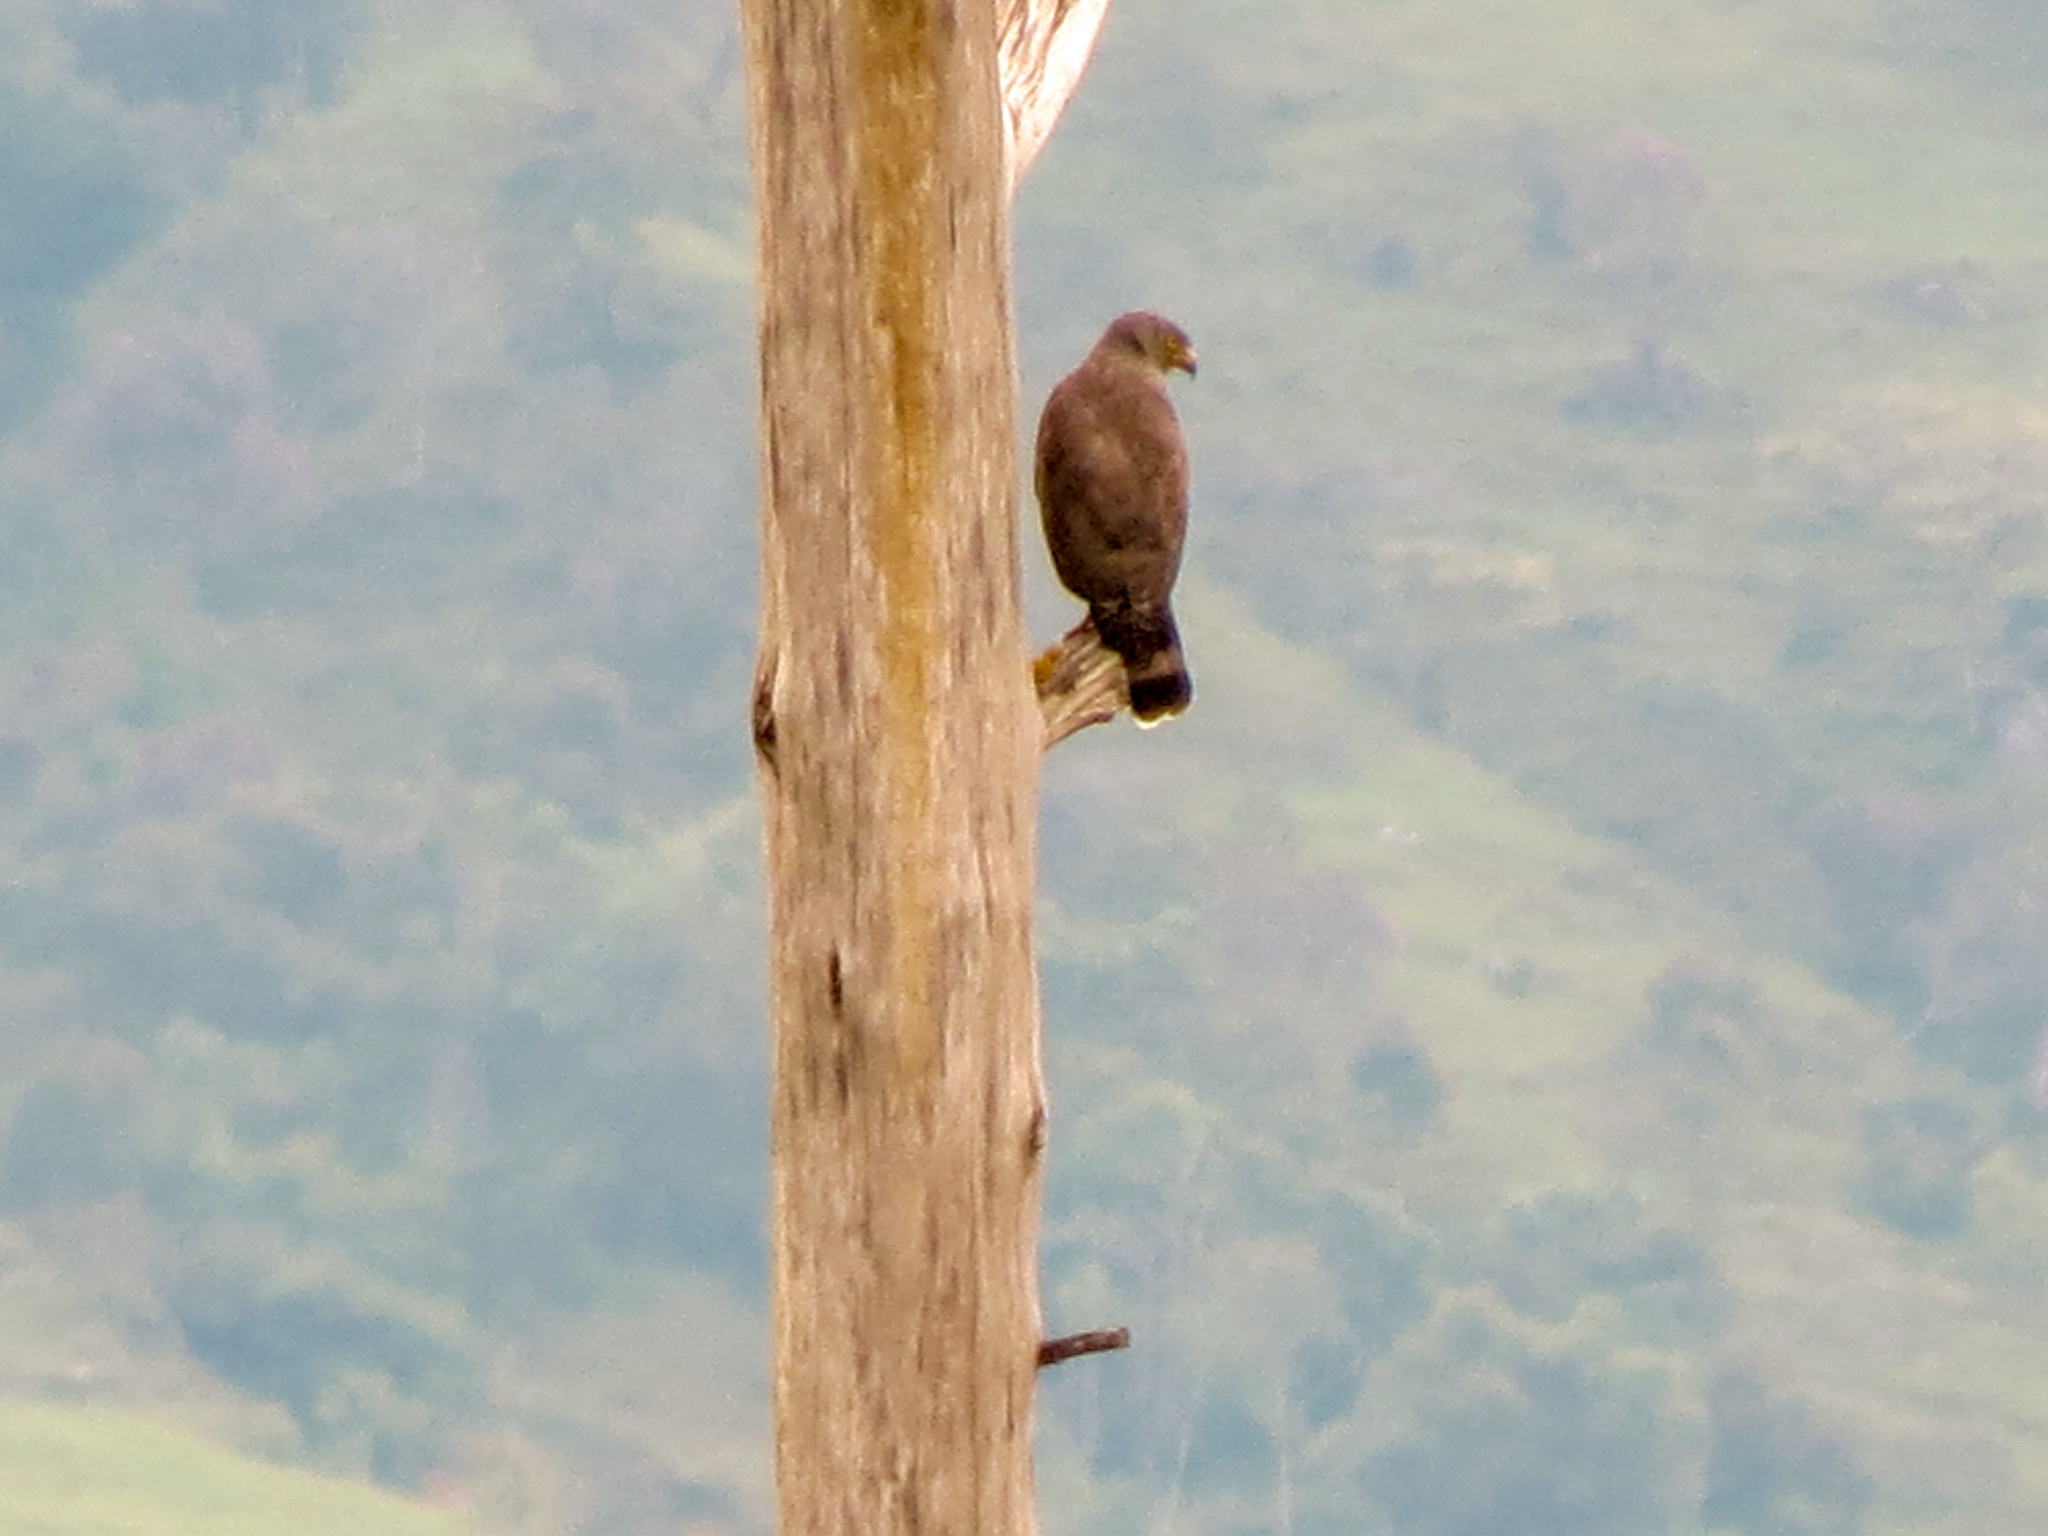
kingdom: Animalia
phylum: Chordata
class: Aves
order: Accipitriformes
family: Accipitridae
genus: Rupornis
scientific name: Rupornis magnirostris
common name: Roadside hawk
